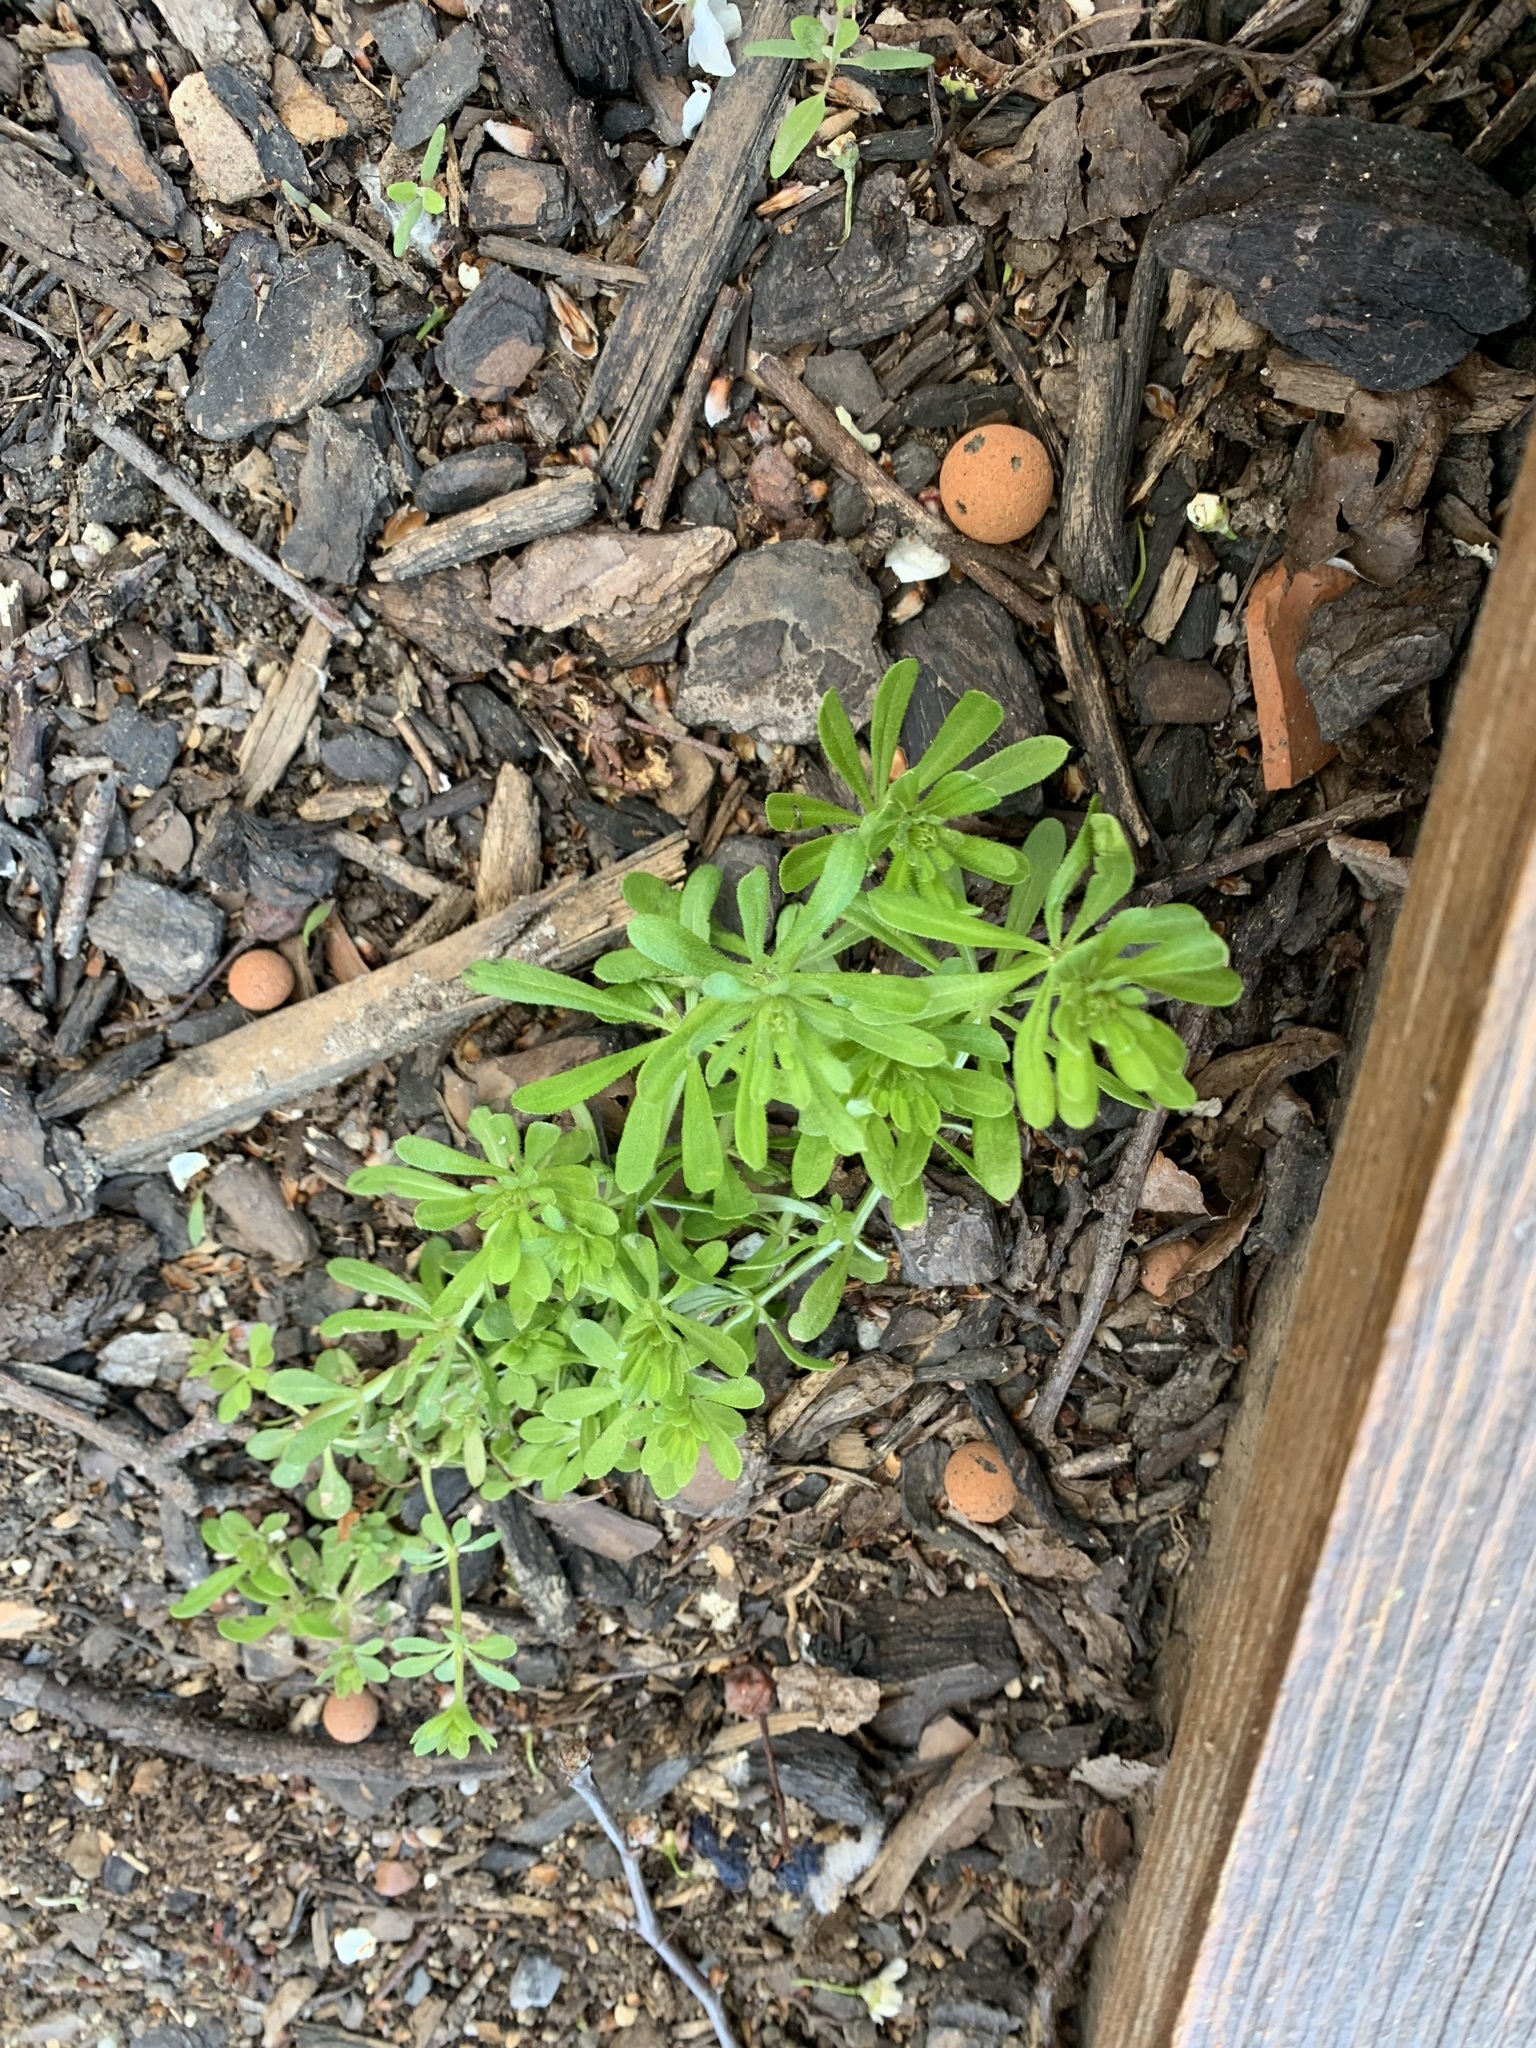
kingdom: Plantae
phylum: Tracheophyta
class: Magnoliopsida
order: Gentianales
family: Rubiaceae
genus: Galium
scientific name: Galium aparine
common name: Cleavers
